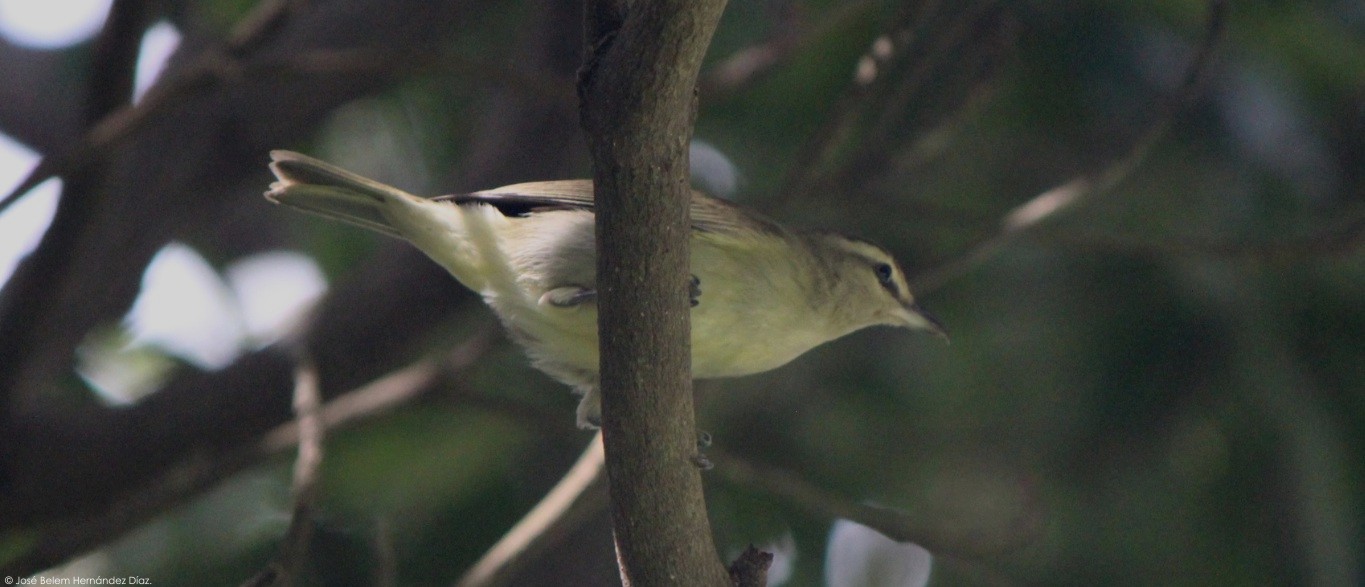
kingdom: Animalia
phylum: Chordata
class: Aves
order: Passeriformes
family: Vireonidae
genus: Vireo
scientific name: Vireo magister
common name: Yucatan vireo
